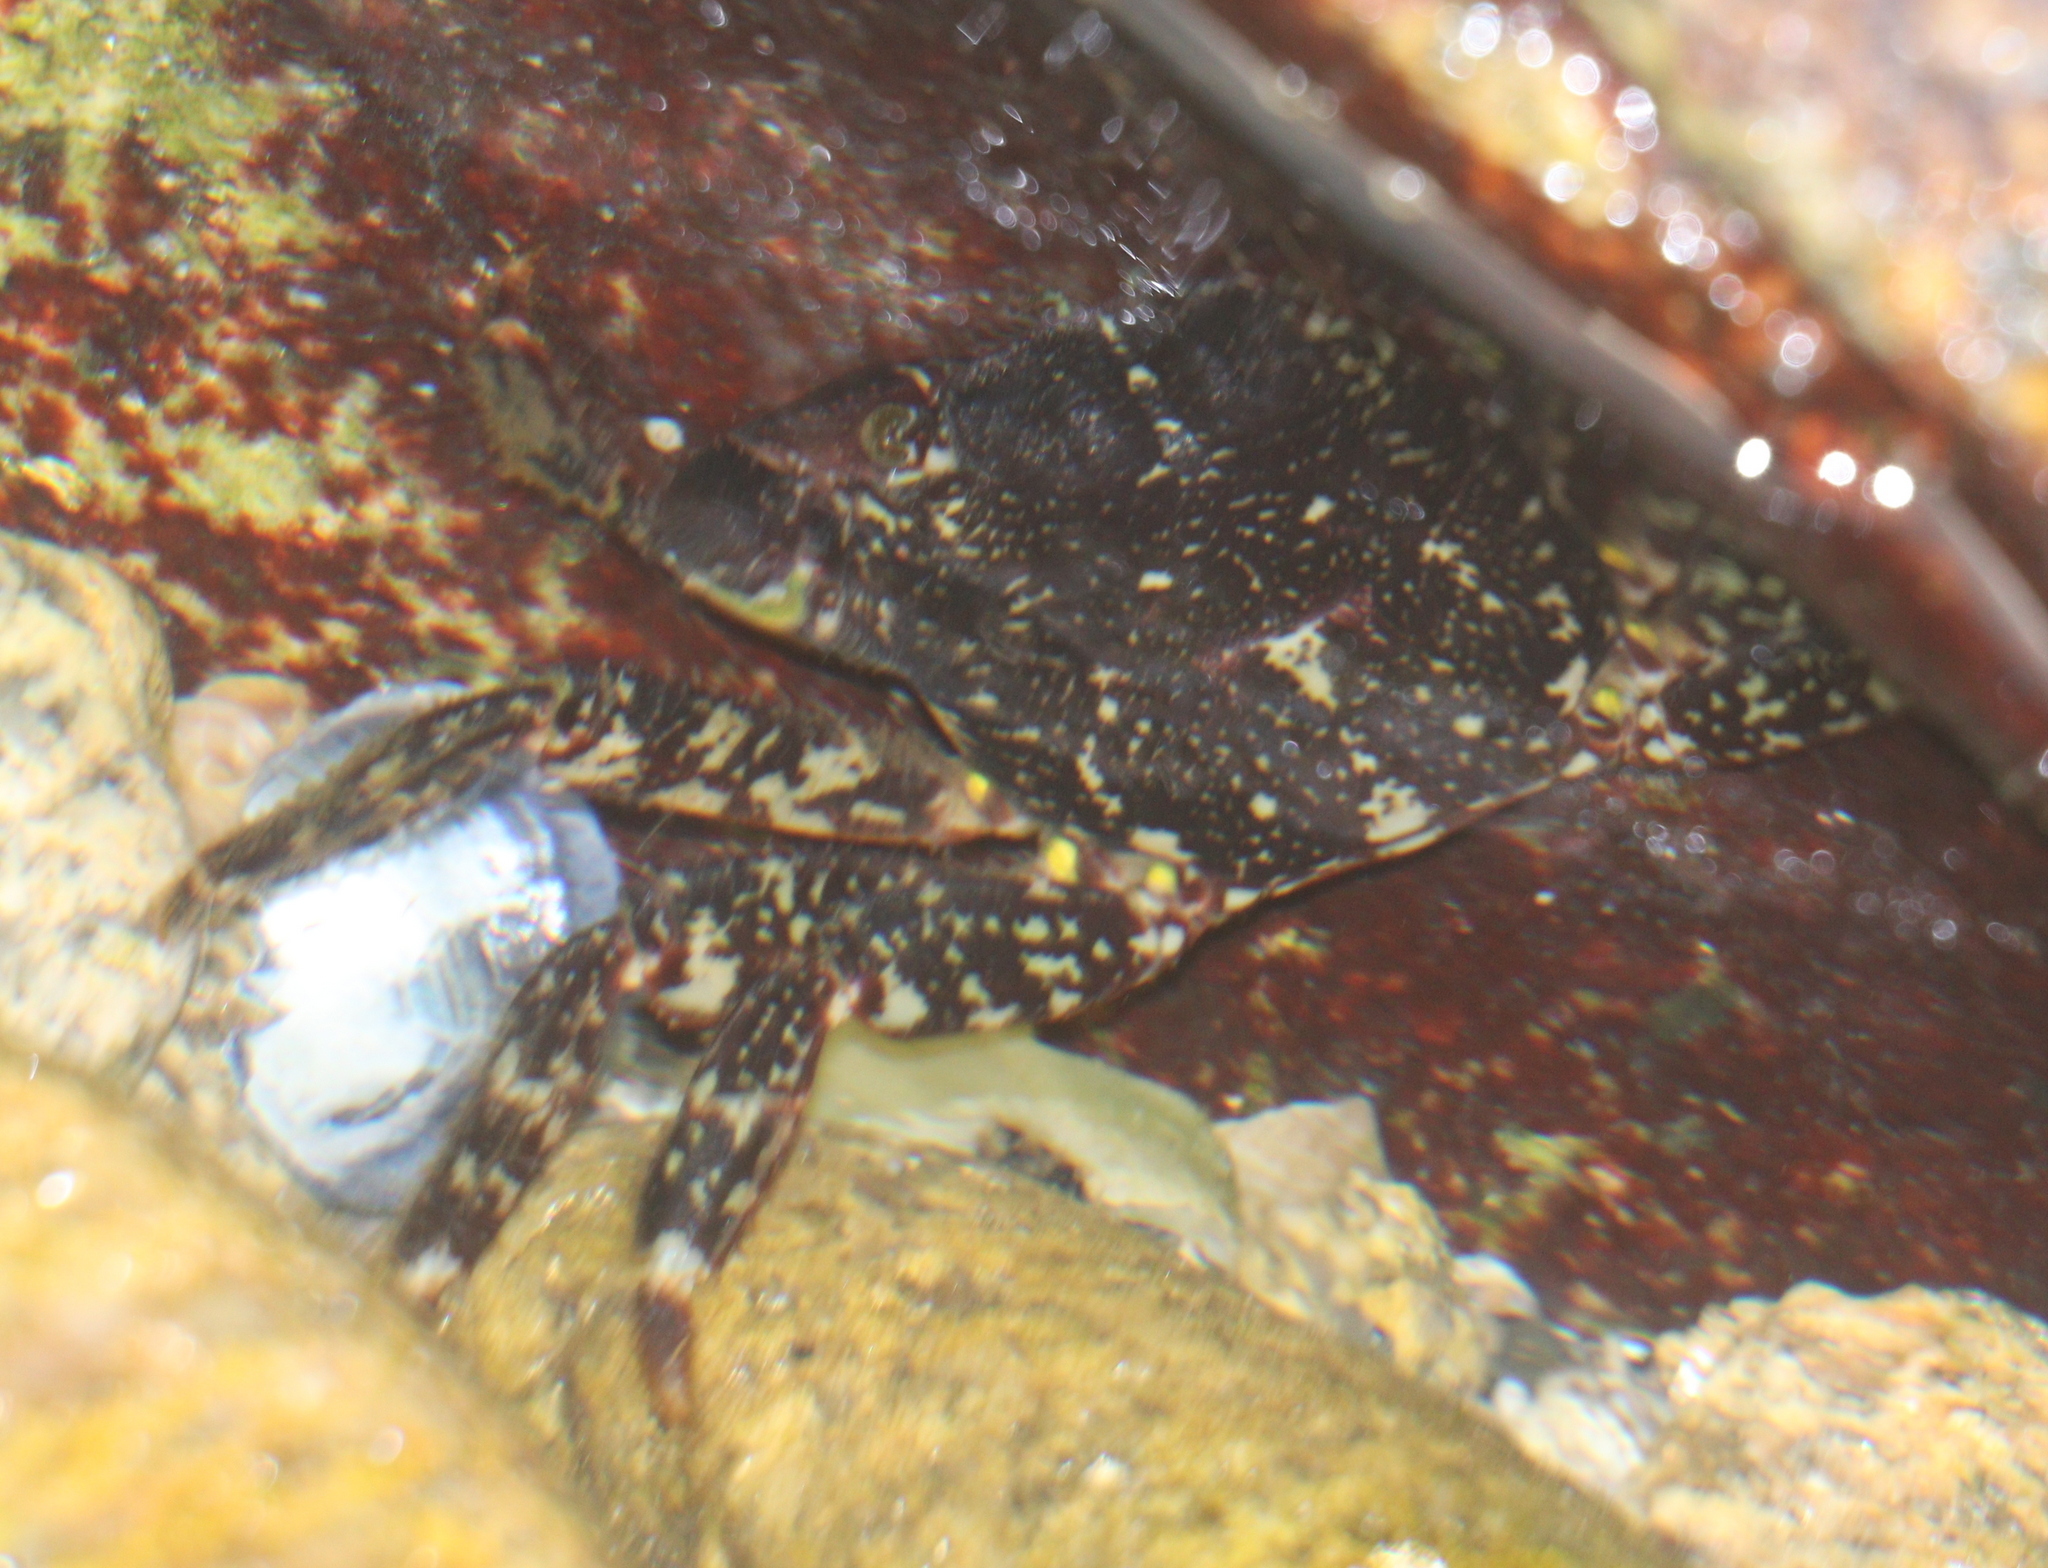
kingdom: Animalia
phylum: Arthropoda
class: Malacostraca
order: Decapoda
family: Grapsidae
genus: Pachygrapsus
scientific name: Pachygrapsus marmoratus
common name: Marbled rock crab
